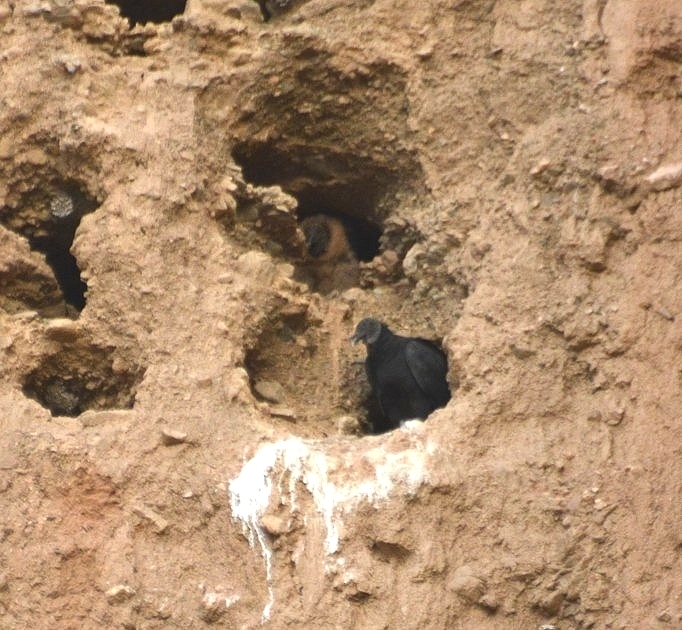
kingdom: Animalia
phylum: Chordata
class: Aves
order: Accipitriformes
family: Cathartidae
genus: Coragyps
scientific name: Coragyps atratus
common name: Black vulture
